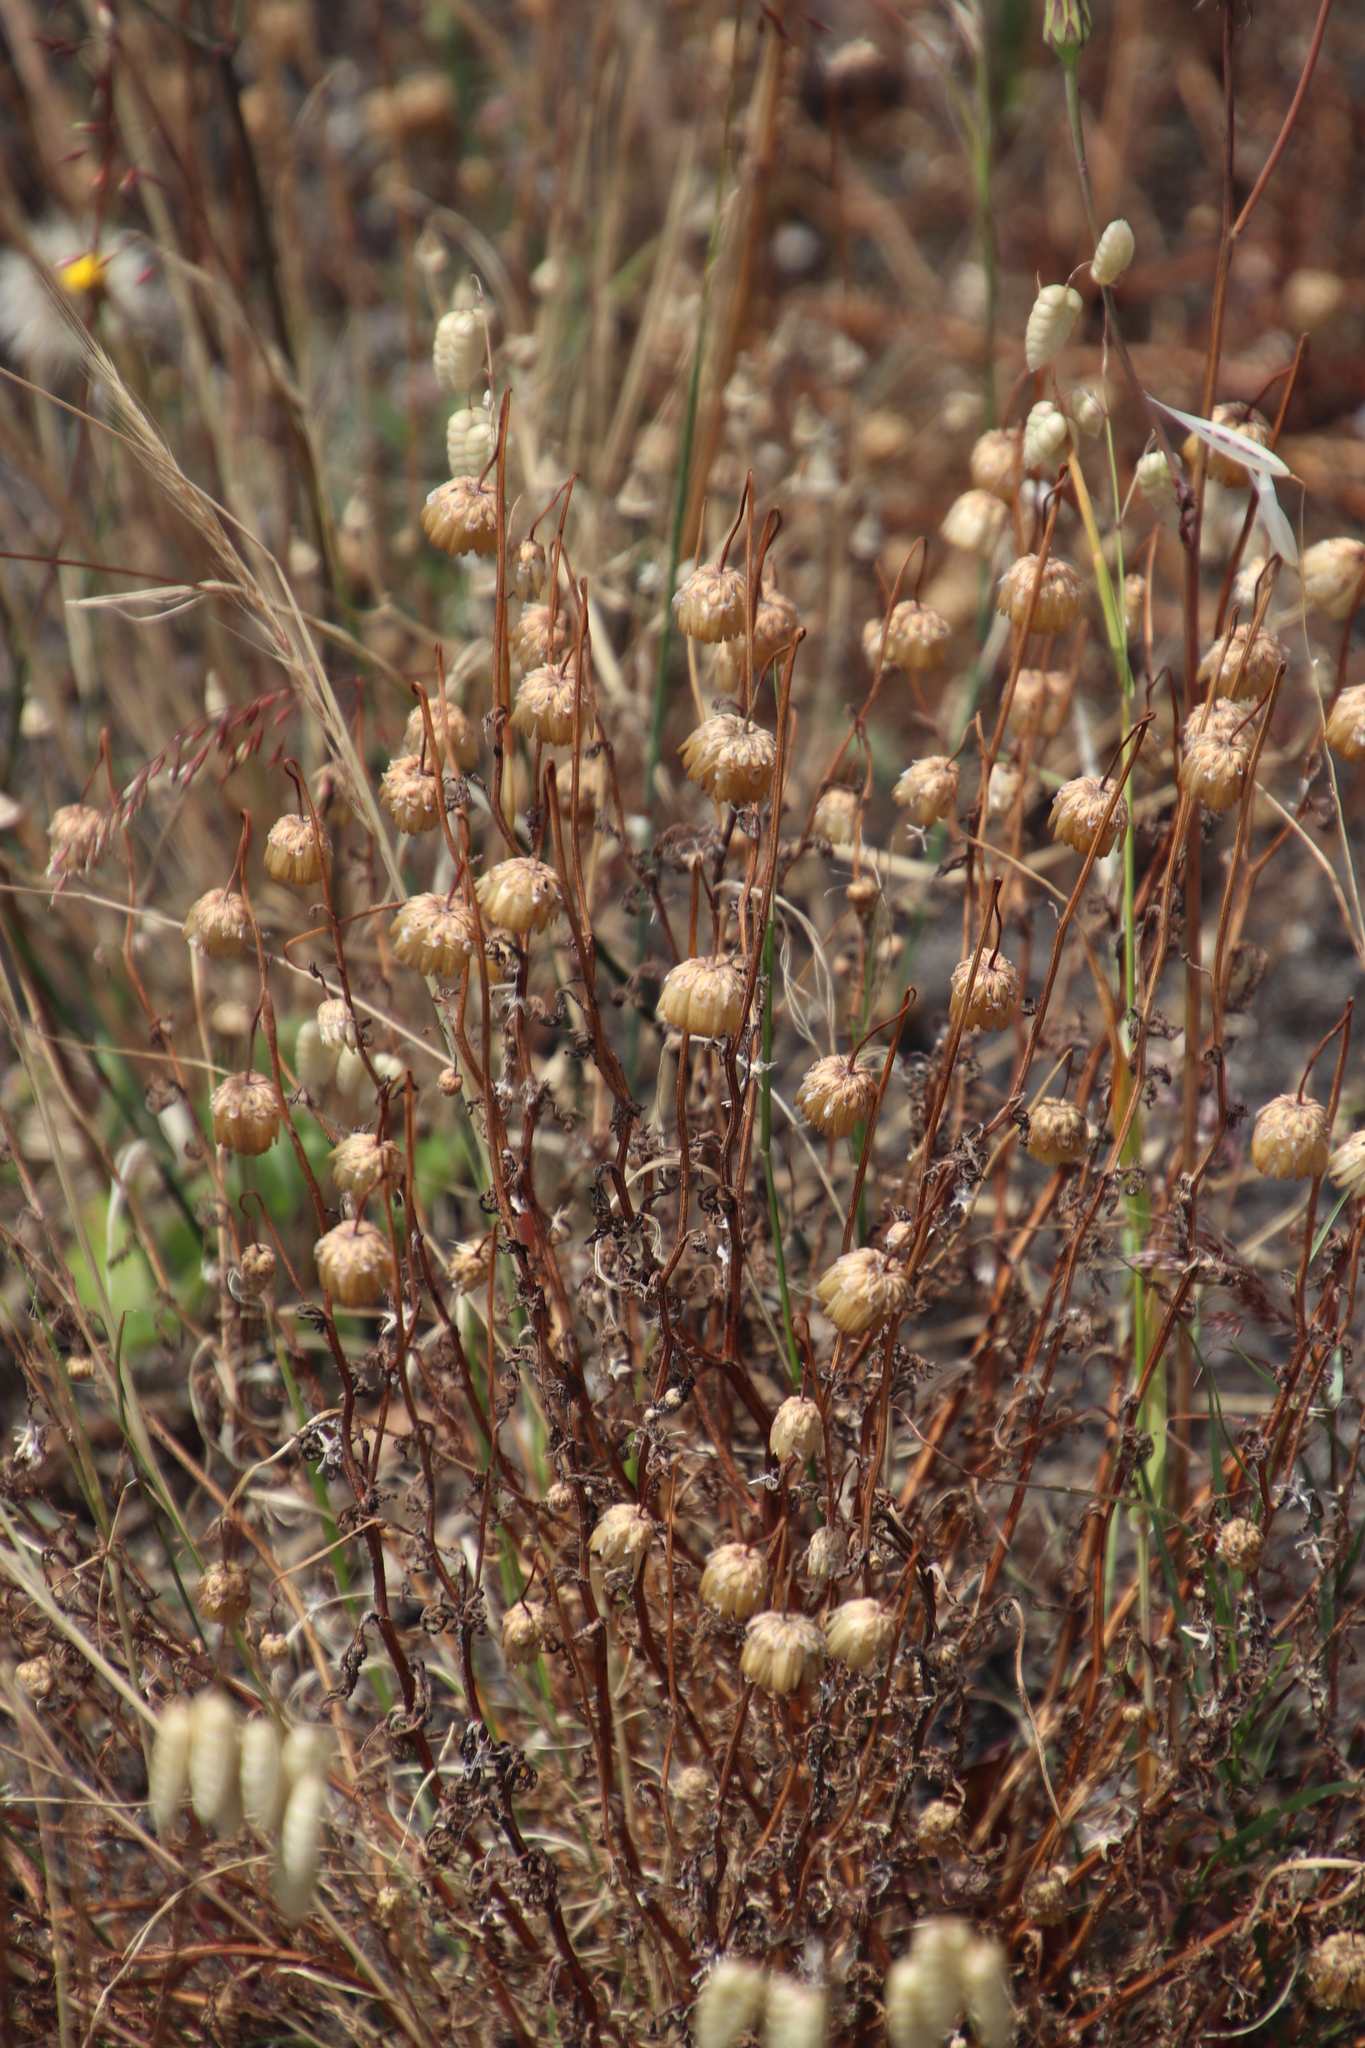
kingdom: Plantae
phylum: Tracheophyta
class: Magnoliopsida
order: Asterales
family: Asteraceae
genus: Ursinia
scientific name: Ursinia anthemoides
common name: Ursinia
